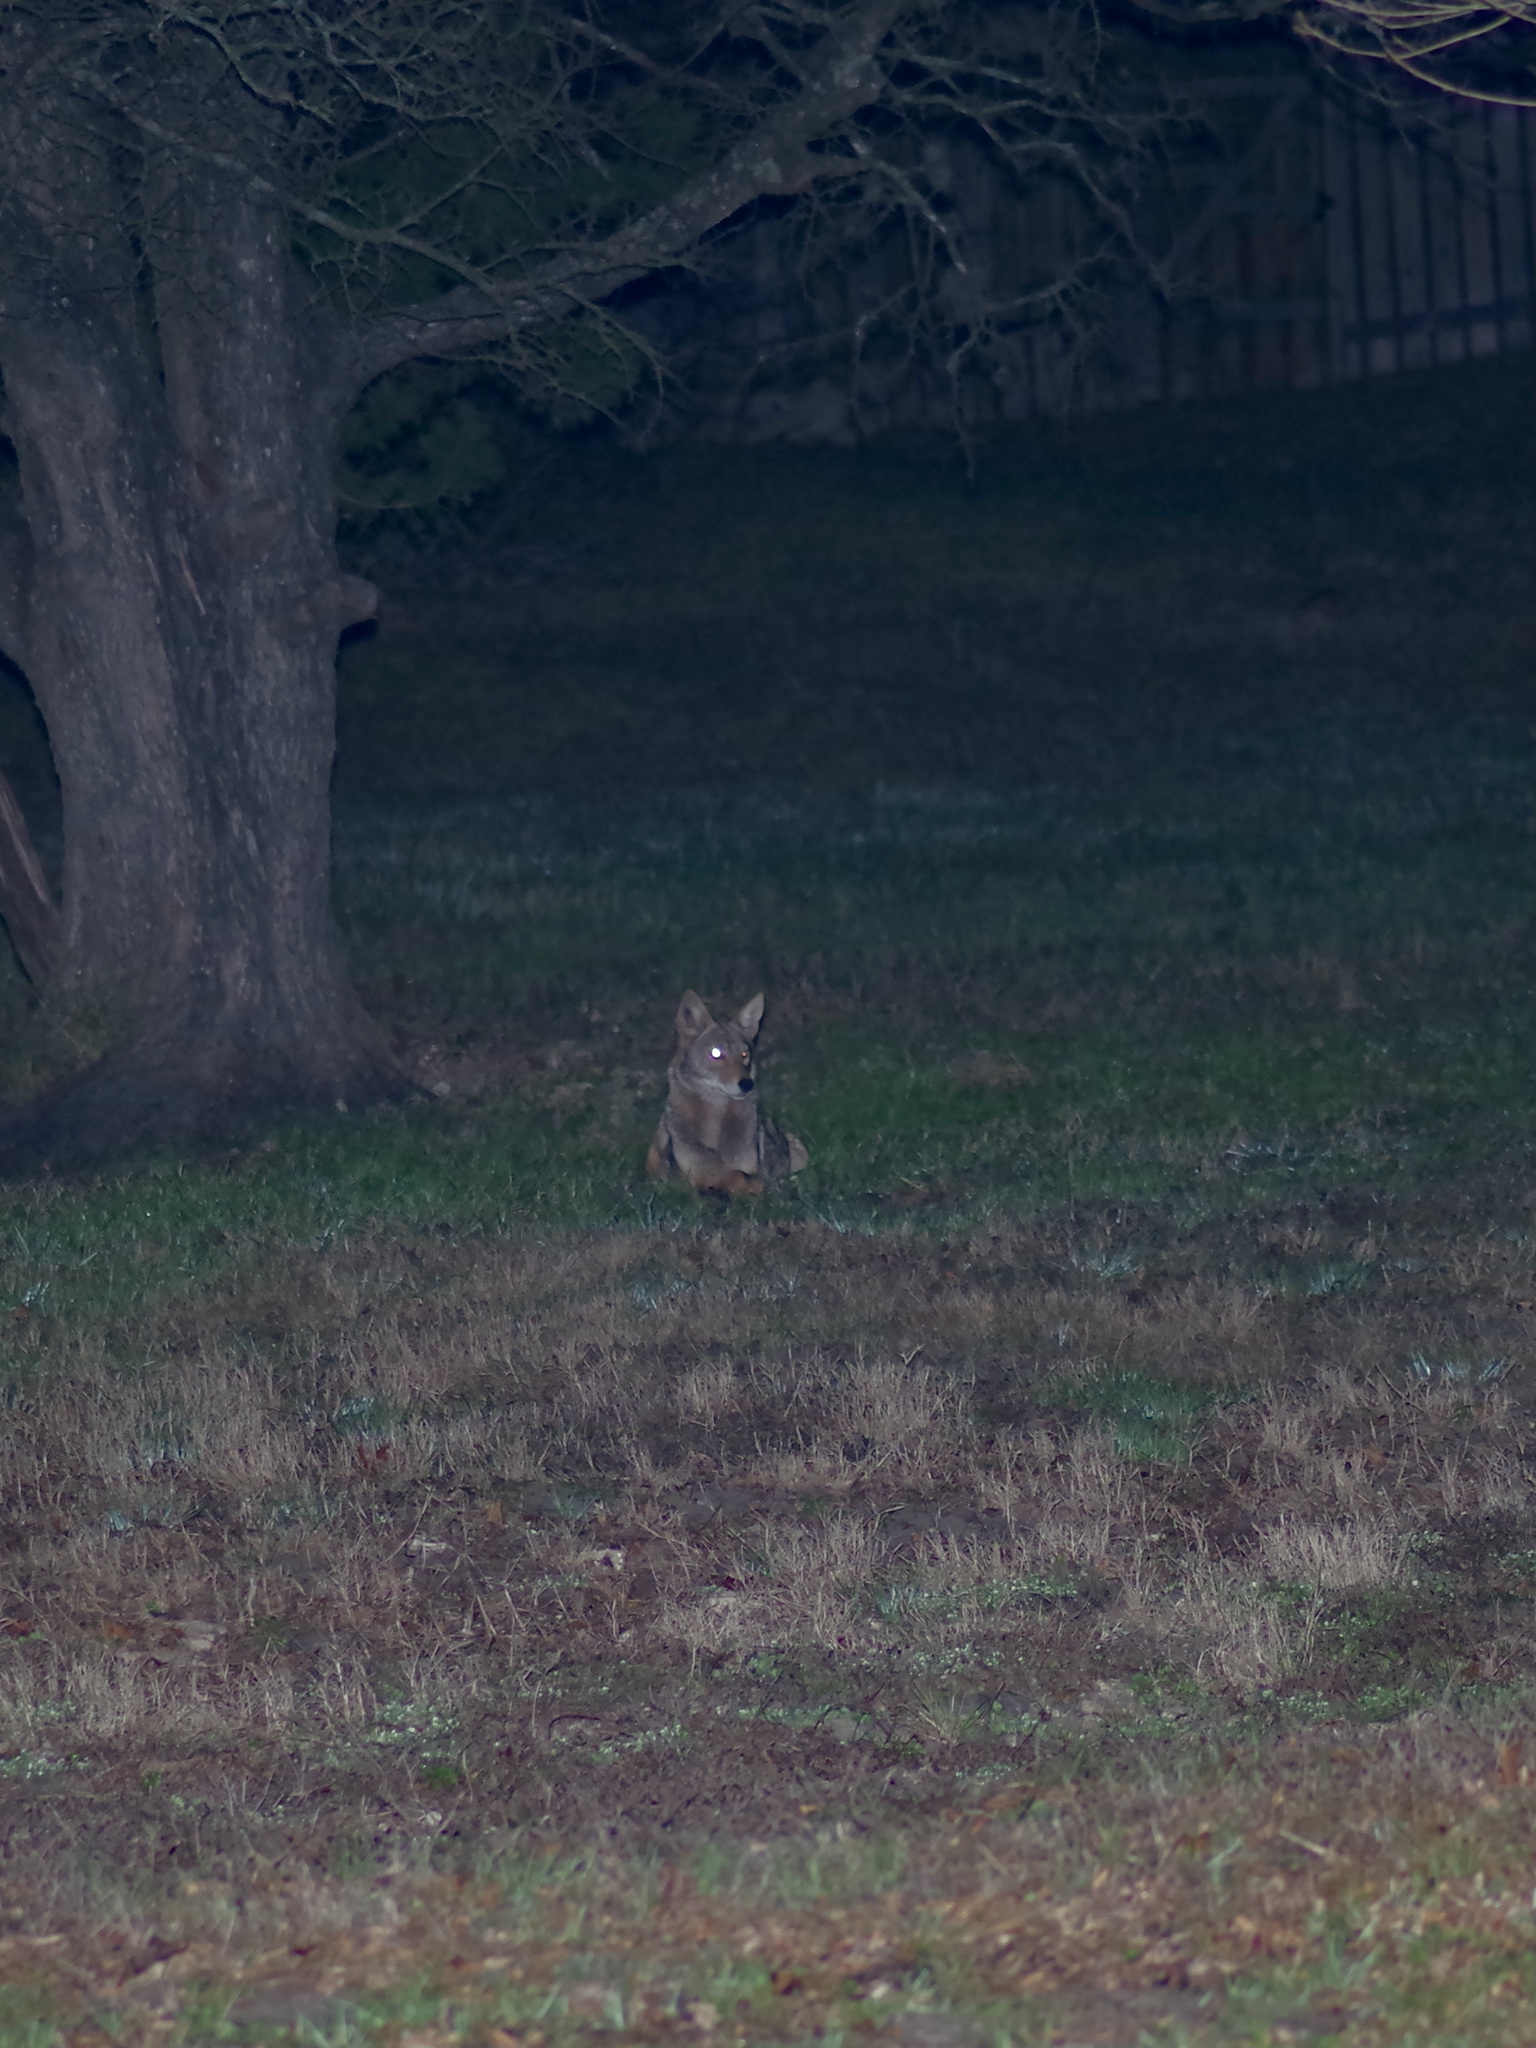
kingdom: Animalia
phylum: Chordata
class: Mammalia
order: Carnivora
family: Canidae
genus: Canis
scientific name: Canis latrans
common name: Coyote
